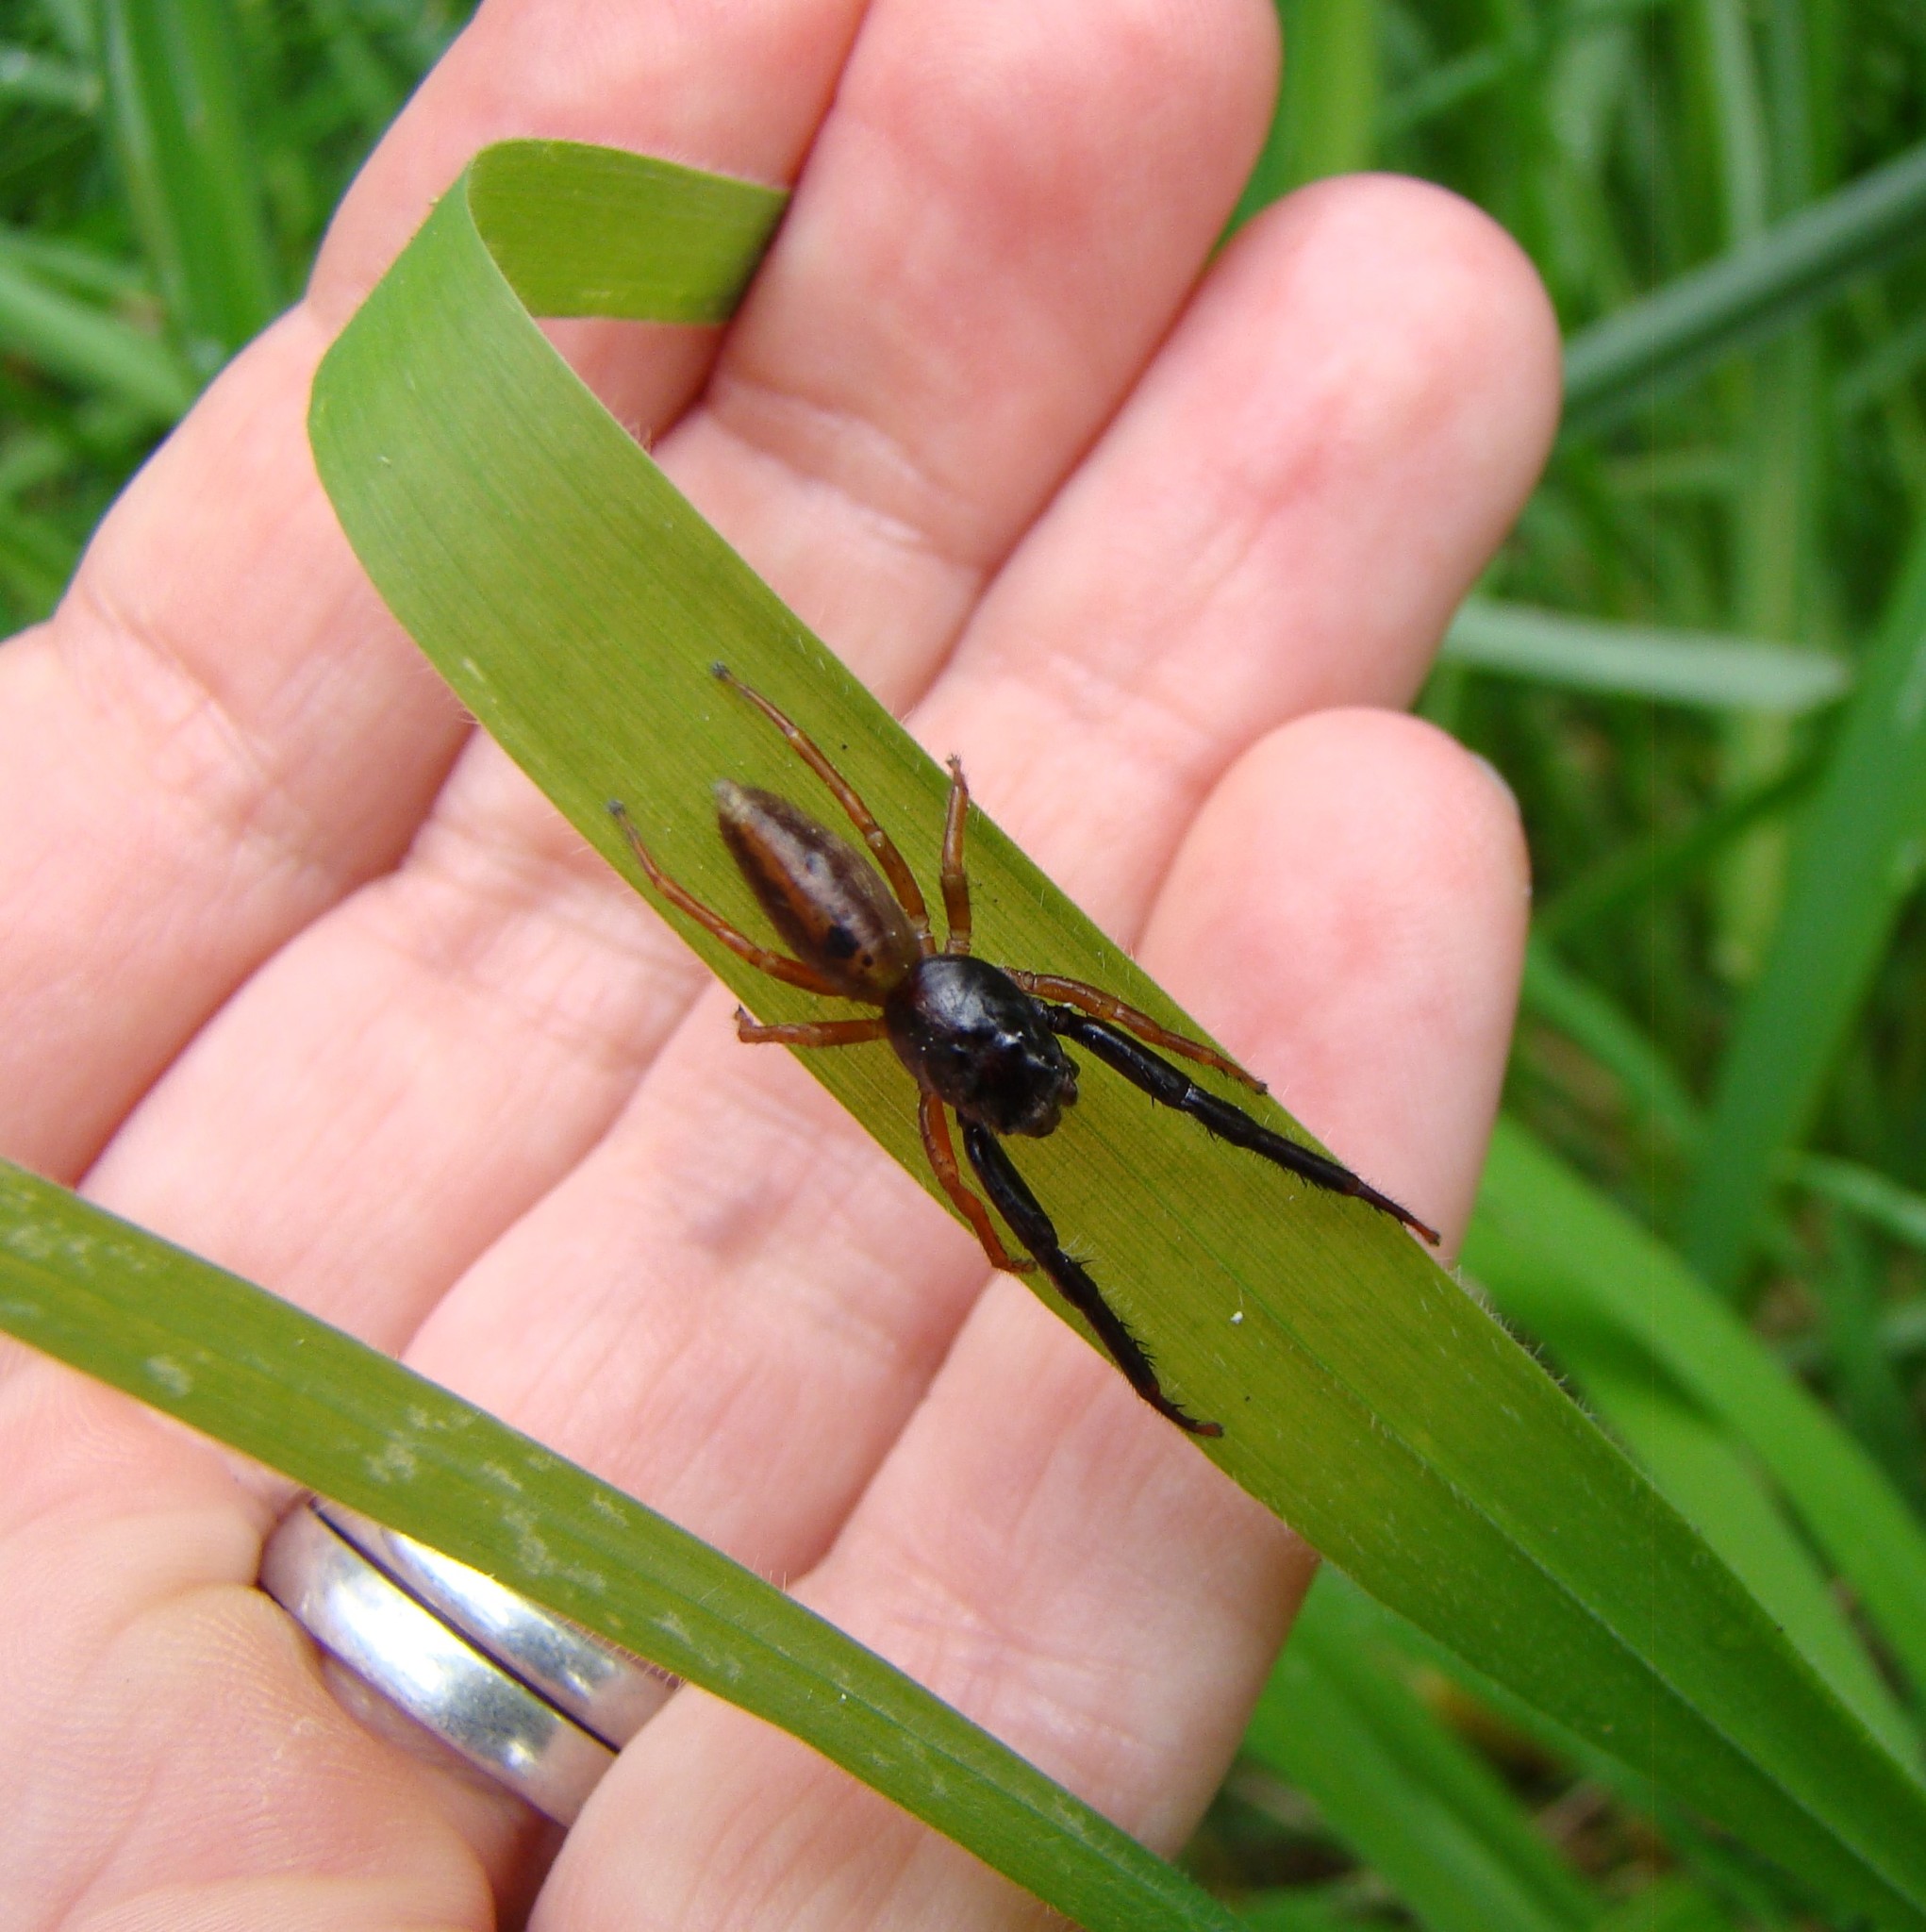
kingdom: Animalia
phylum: Arthropoda
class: Arachnida
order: Araneae
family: Salticidae
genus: Trite
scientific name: Trite planiceps
